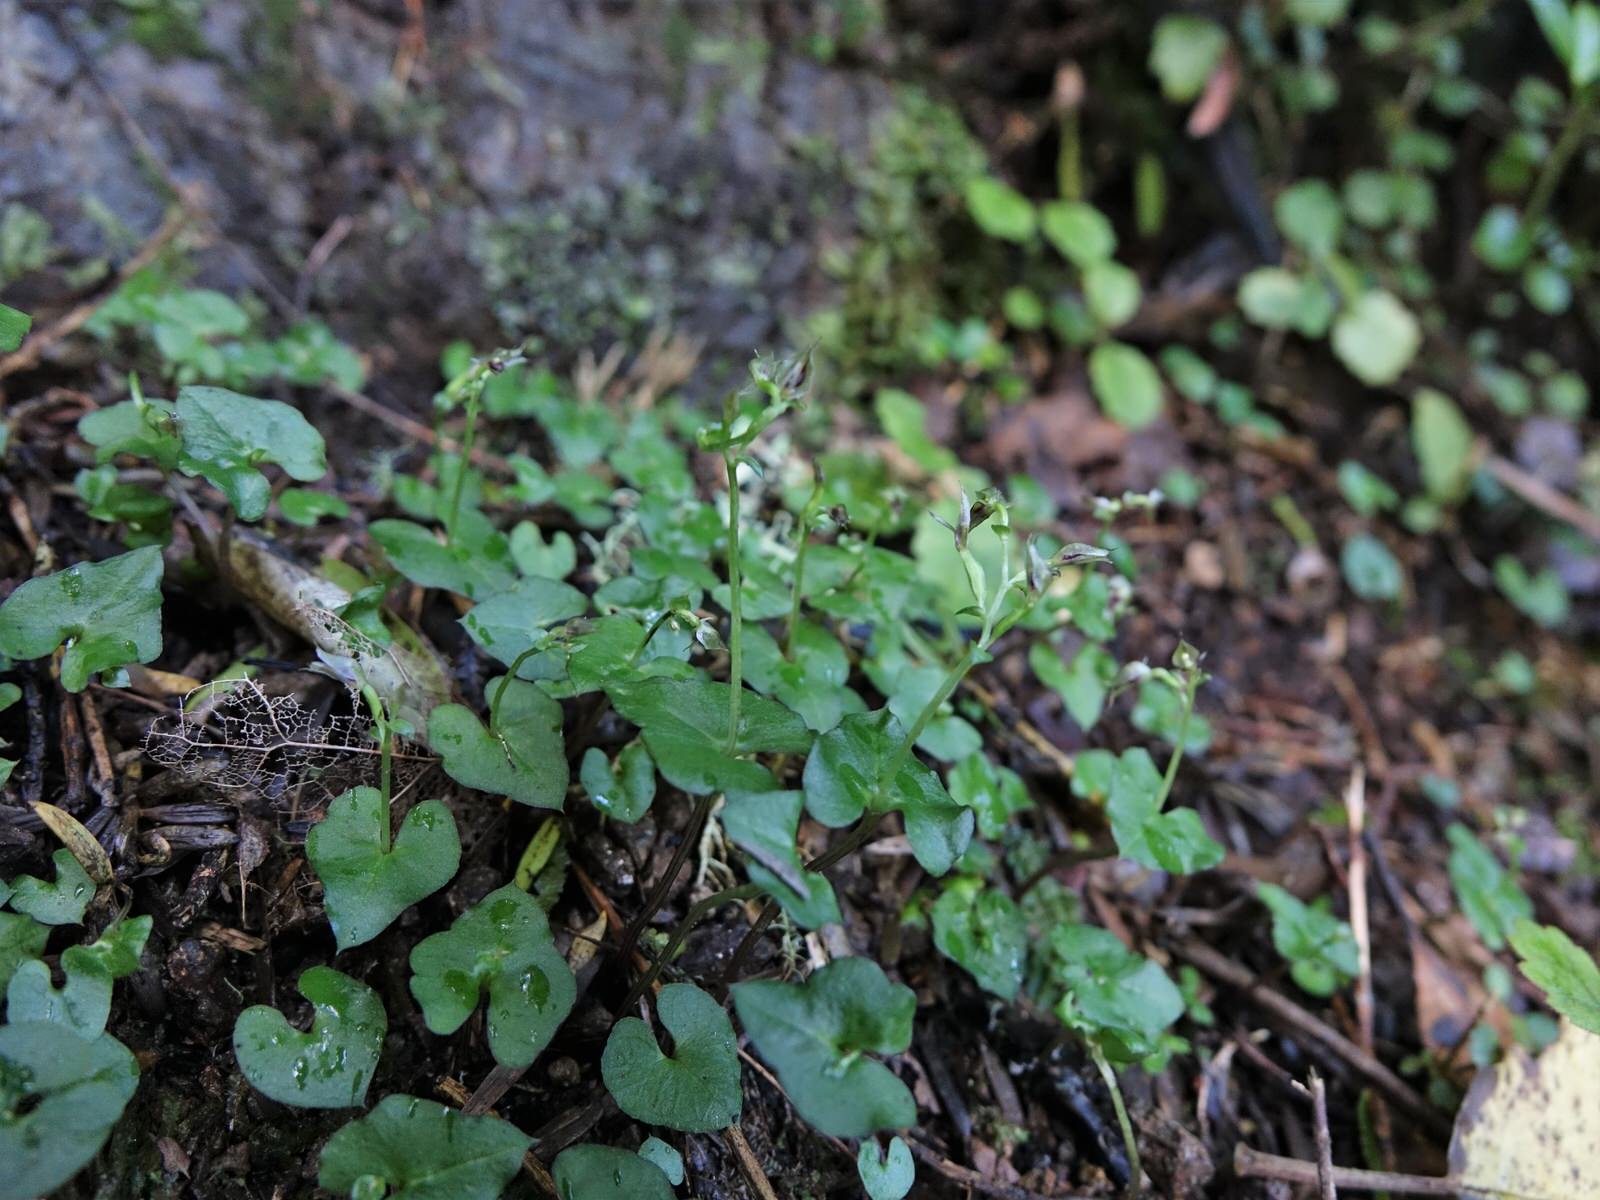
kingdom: Plantae
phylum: Tracheophyta
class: Liliopsida
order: Asparagales
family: Orchidaceae
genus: Acianthus
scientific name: Acianthus sinclairii
